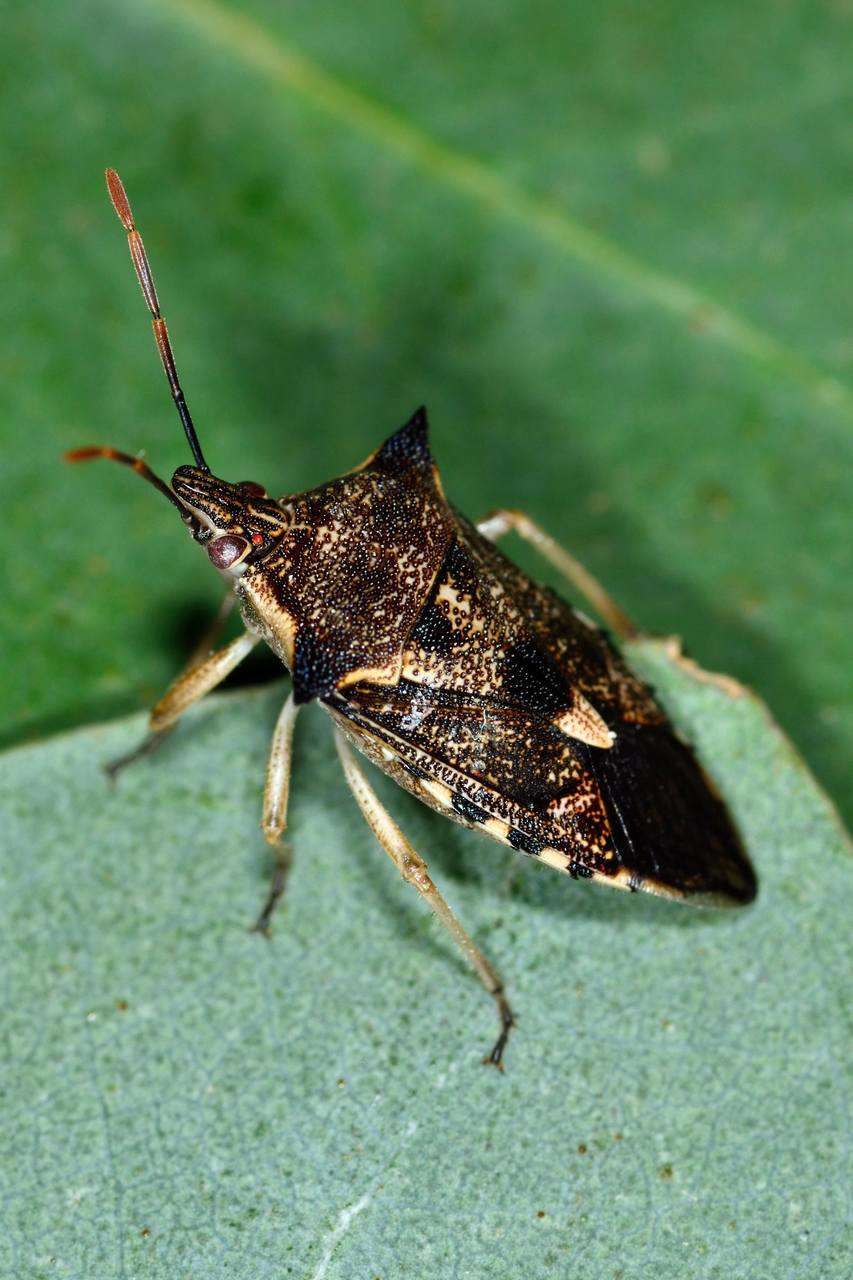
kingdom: Animalia
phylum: Arthropoda
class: Insecta
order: Hemiptera
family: Pentatomidae
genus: Oechalia
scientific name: Oechalia schellenbergii
